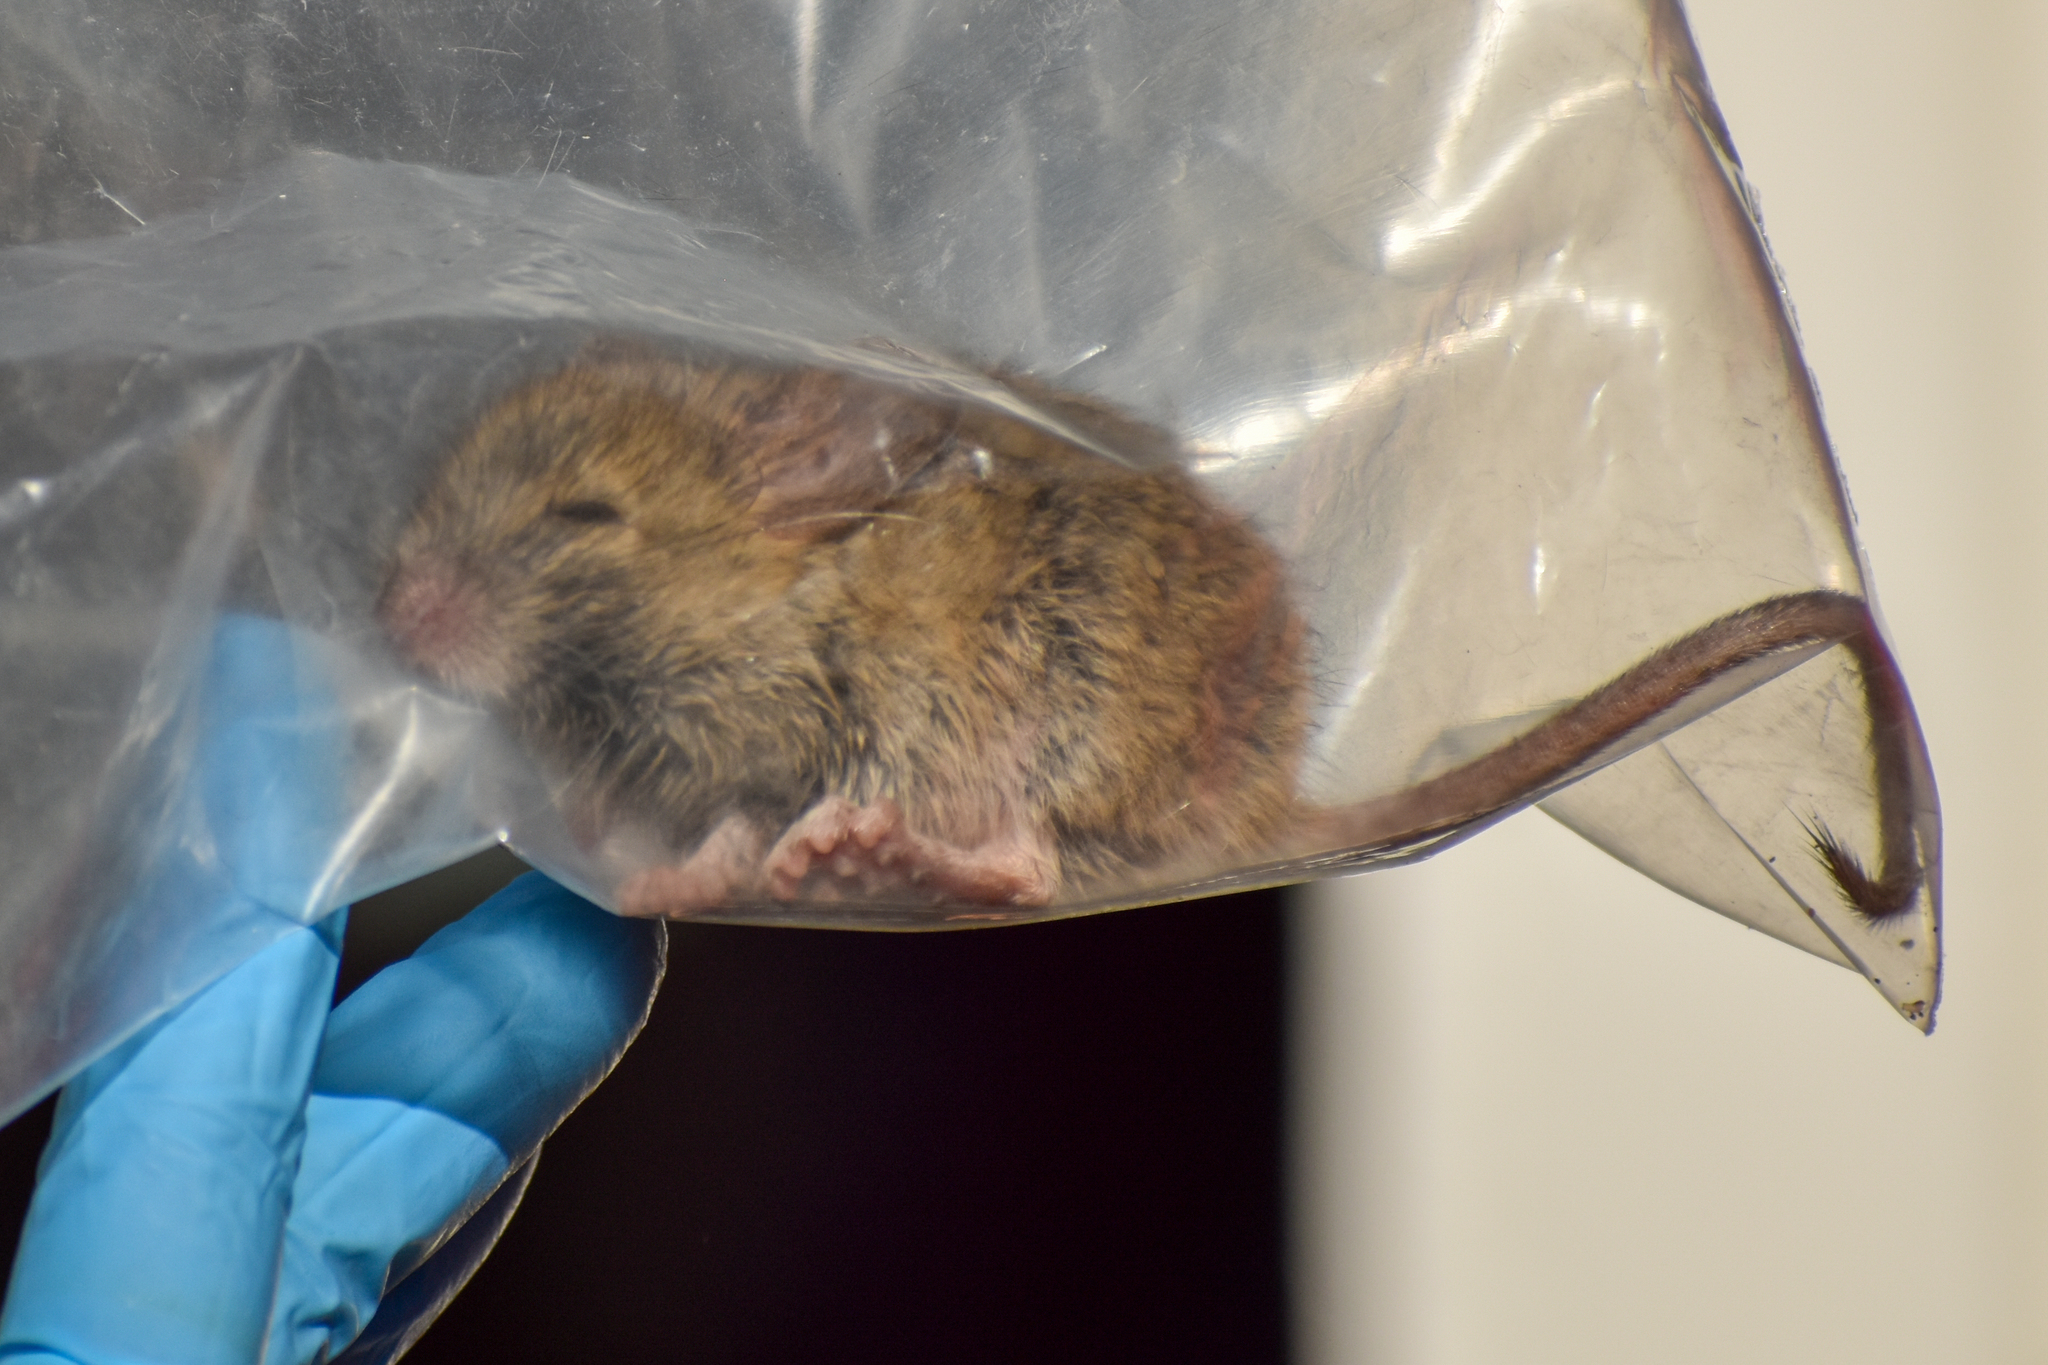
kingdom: Animalia
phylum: Chordata
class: Mammalia
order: Rodentia
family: Cricetidae
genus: Reithrodon
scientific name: Reithrodon auritus
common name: Bunny rat
